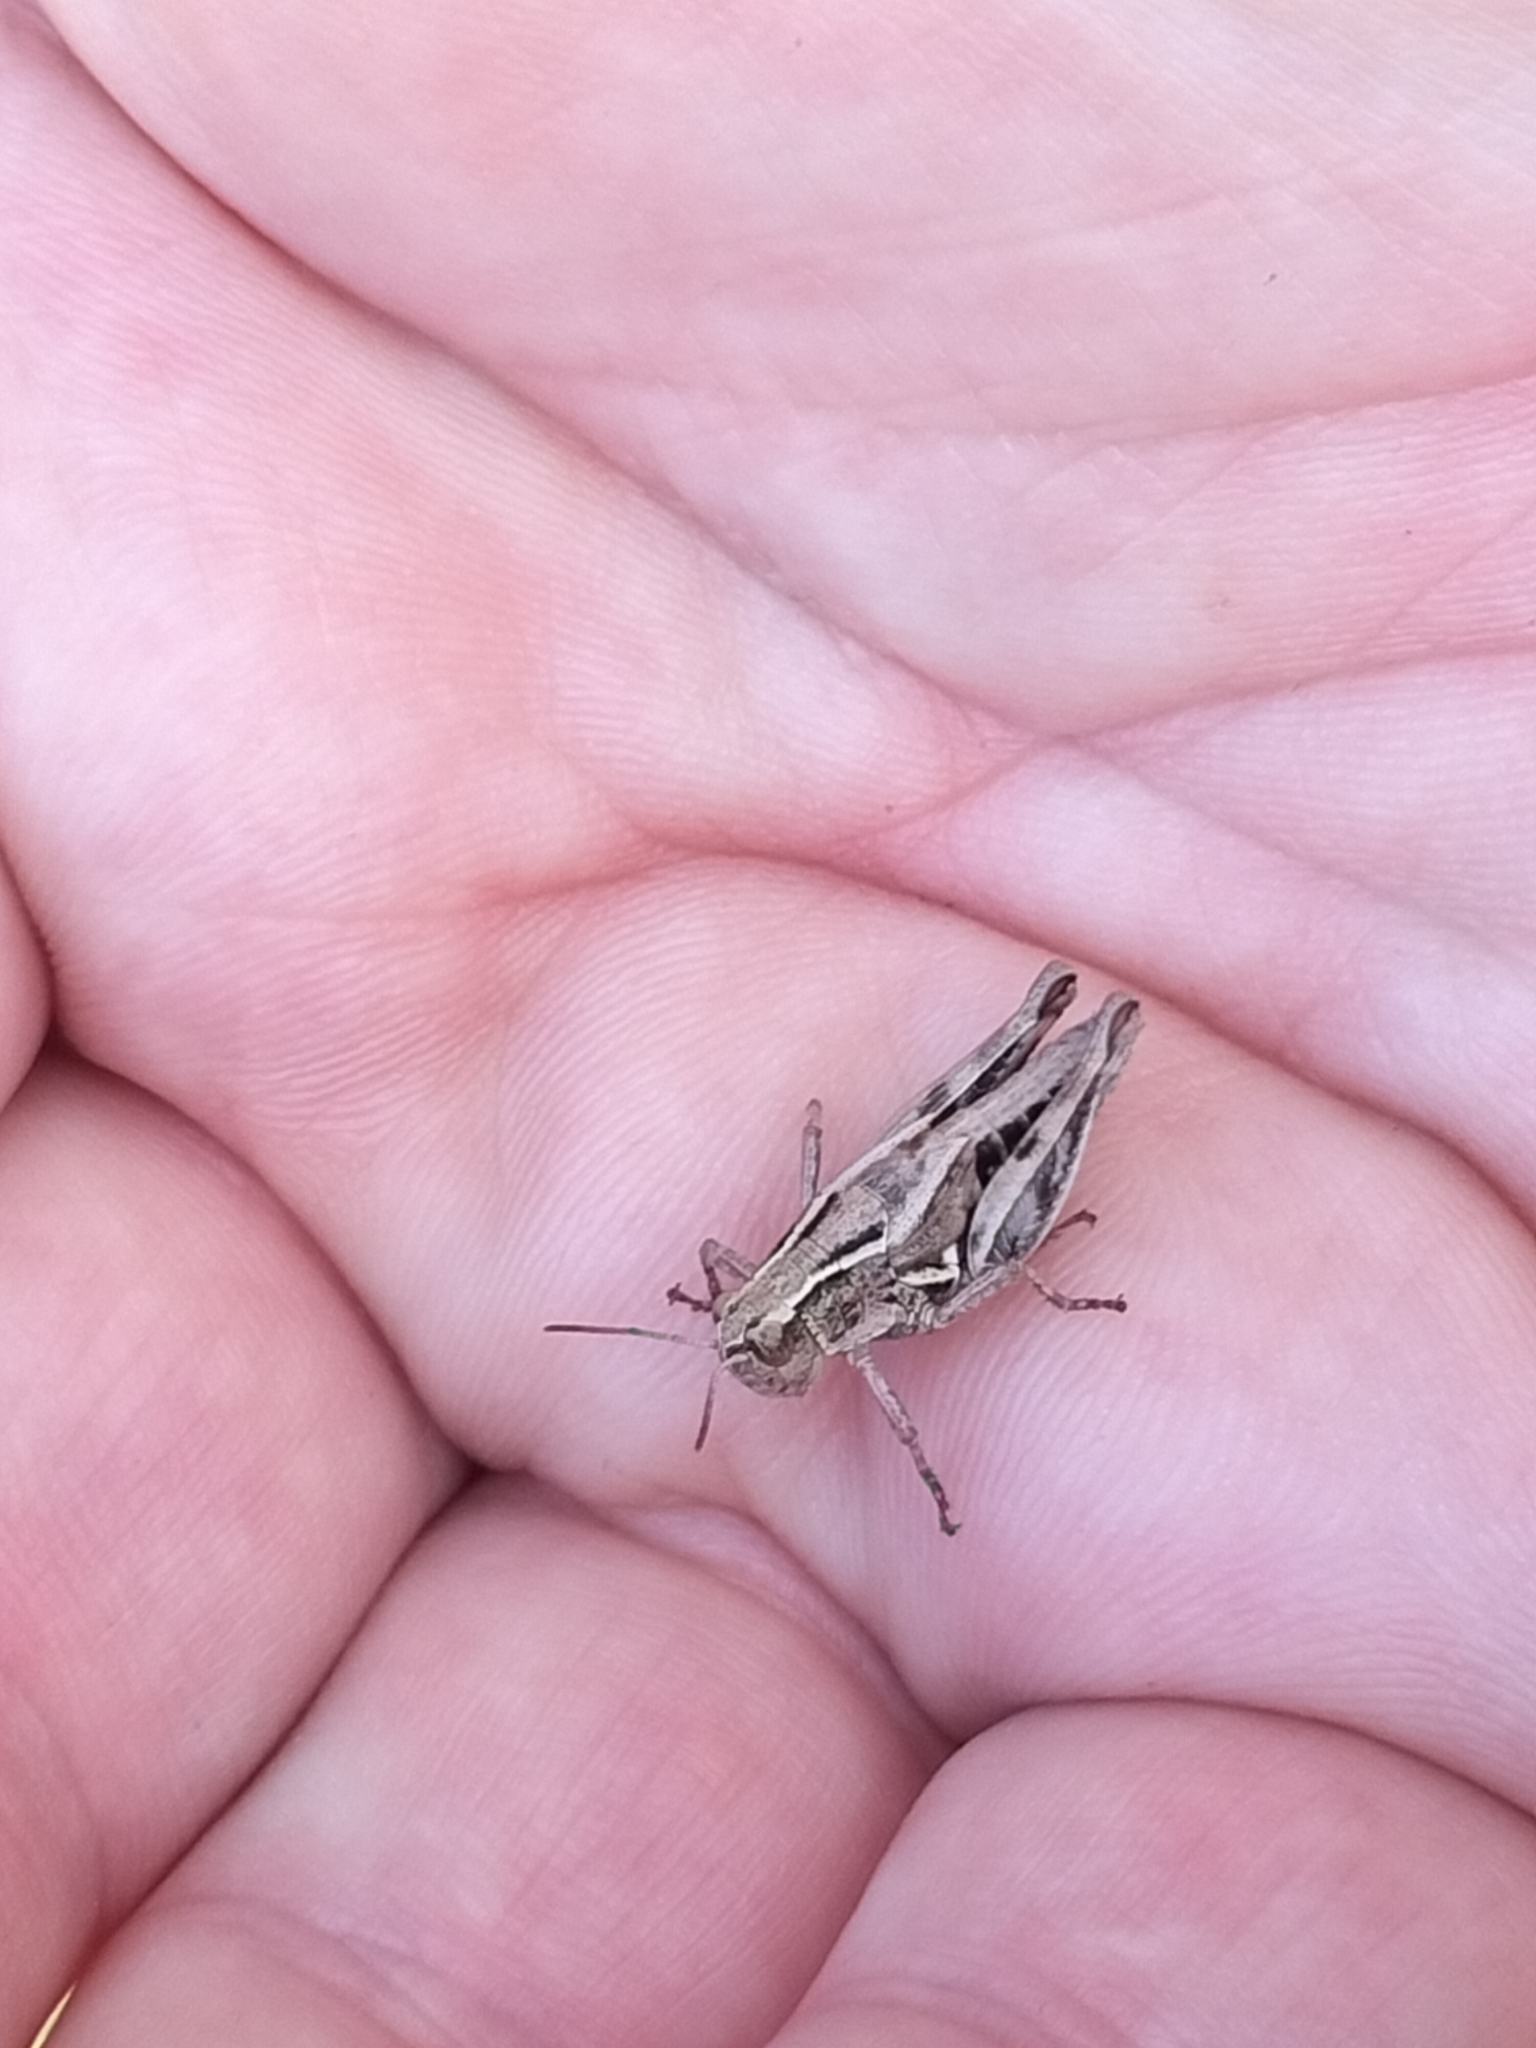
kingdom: Animalia
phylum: Arthropoda
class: Insecta
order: Orthoptera
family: Acrididae
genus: Phaulacridium
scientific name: Phaulacridium marginale
